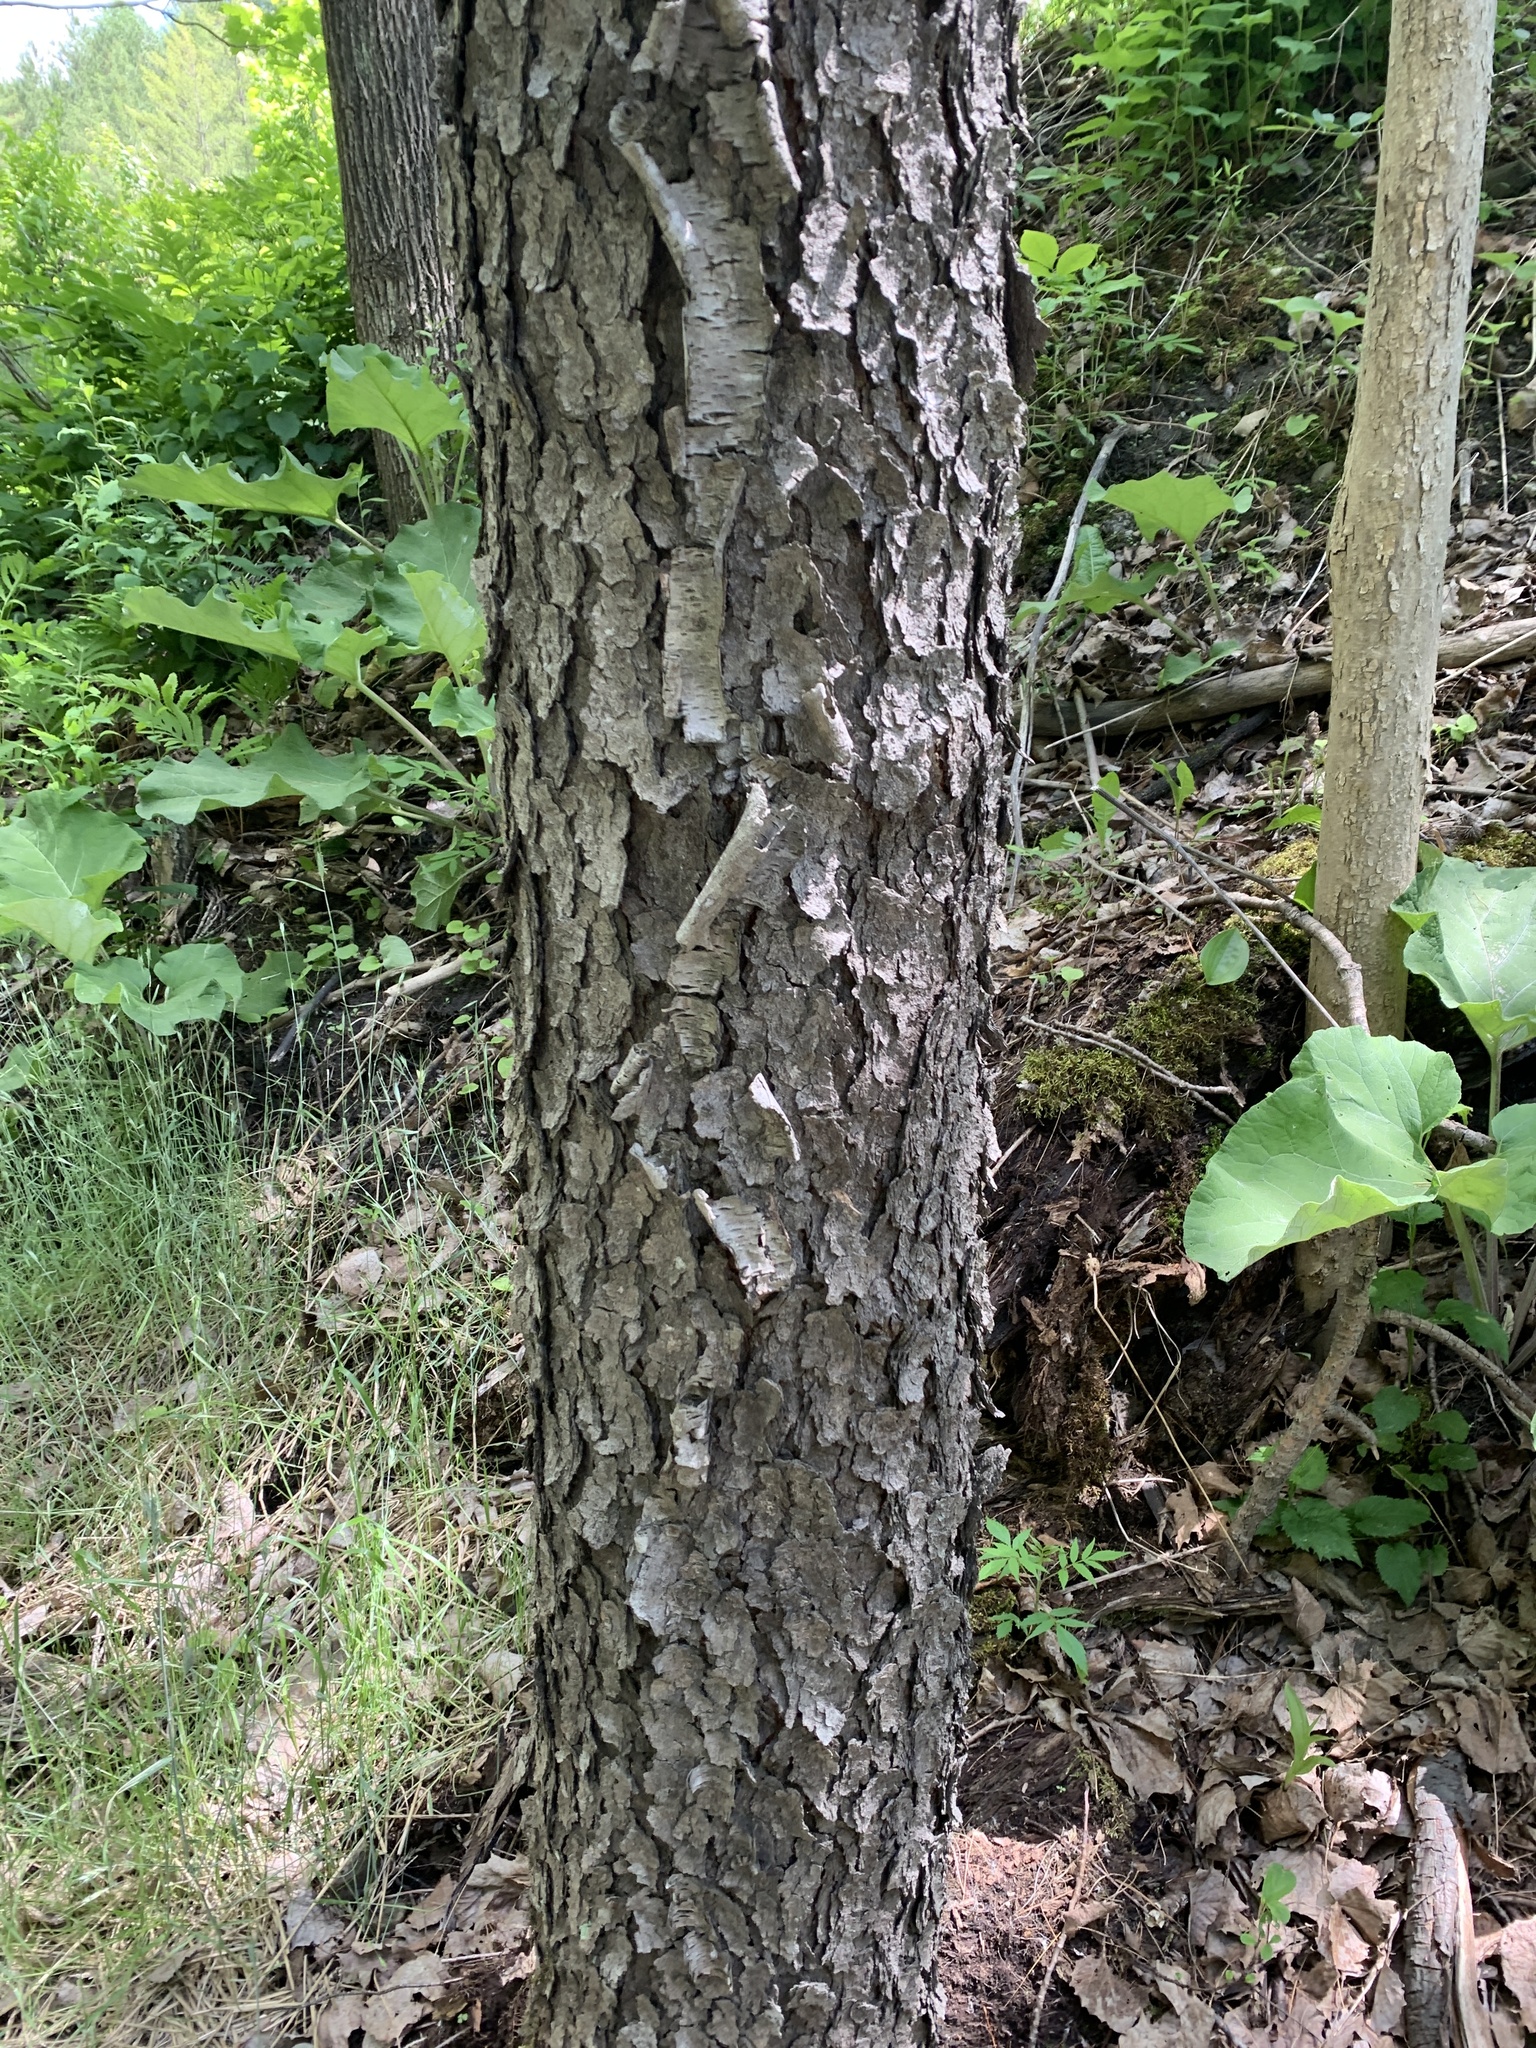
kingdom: Plantae
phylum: Tracheophyta
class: Magnoliopsida
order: Rosales
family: Rosaceae
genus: Prunus
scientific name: Prunus serotina
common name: Black cherry
